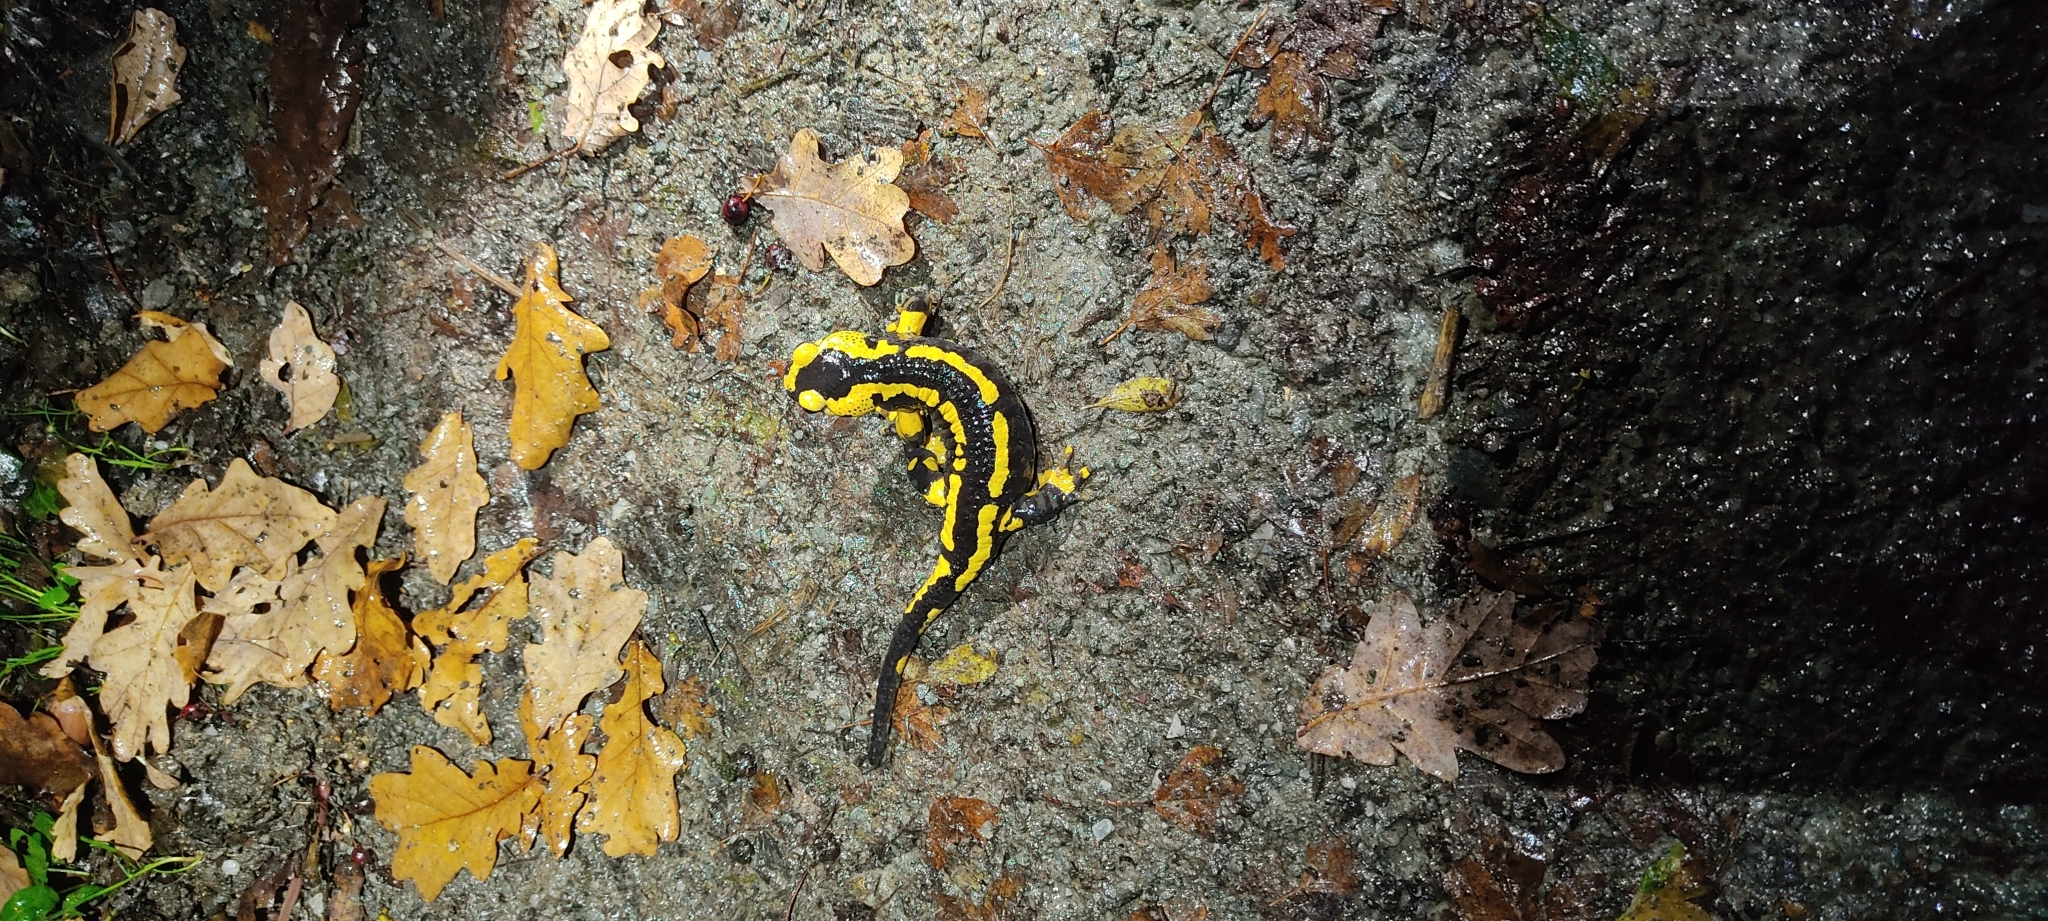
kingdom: Animalia
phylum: Chordata
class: Amphibia
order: Caudata
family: Salamandridae
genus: Salamandra
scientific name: Salamandra salamandra
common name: Fire salamander
